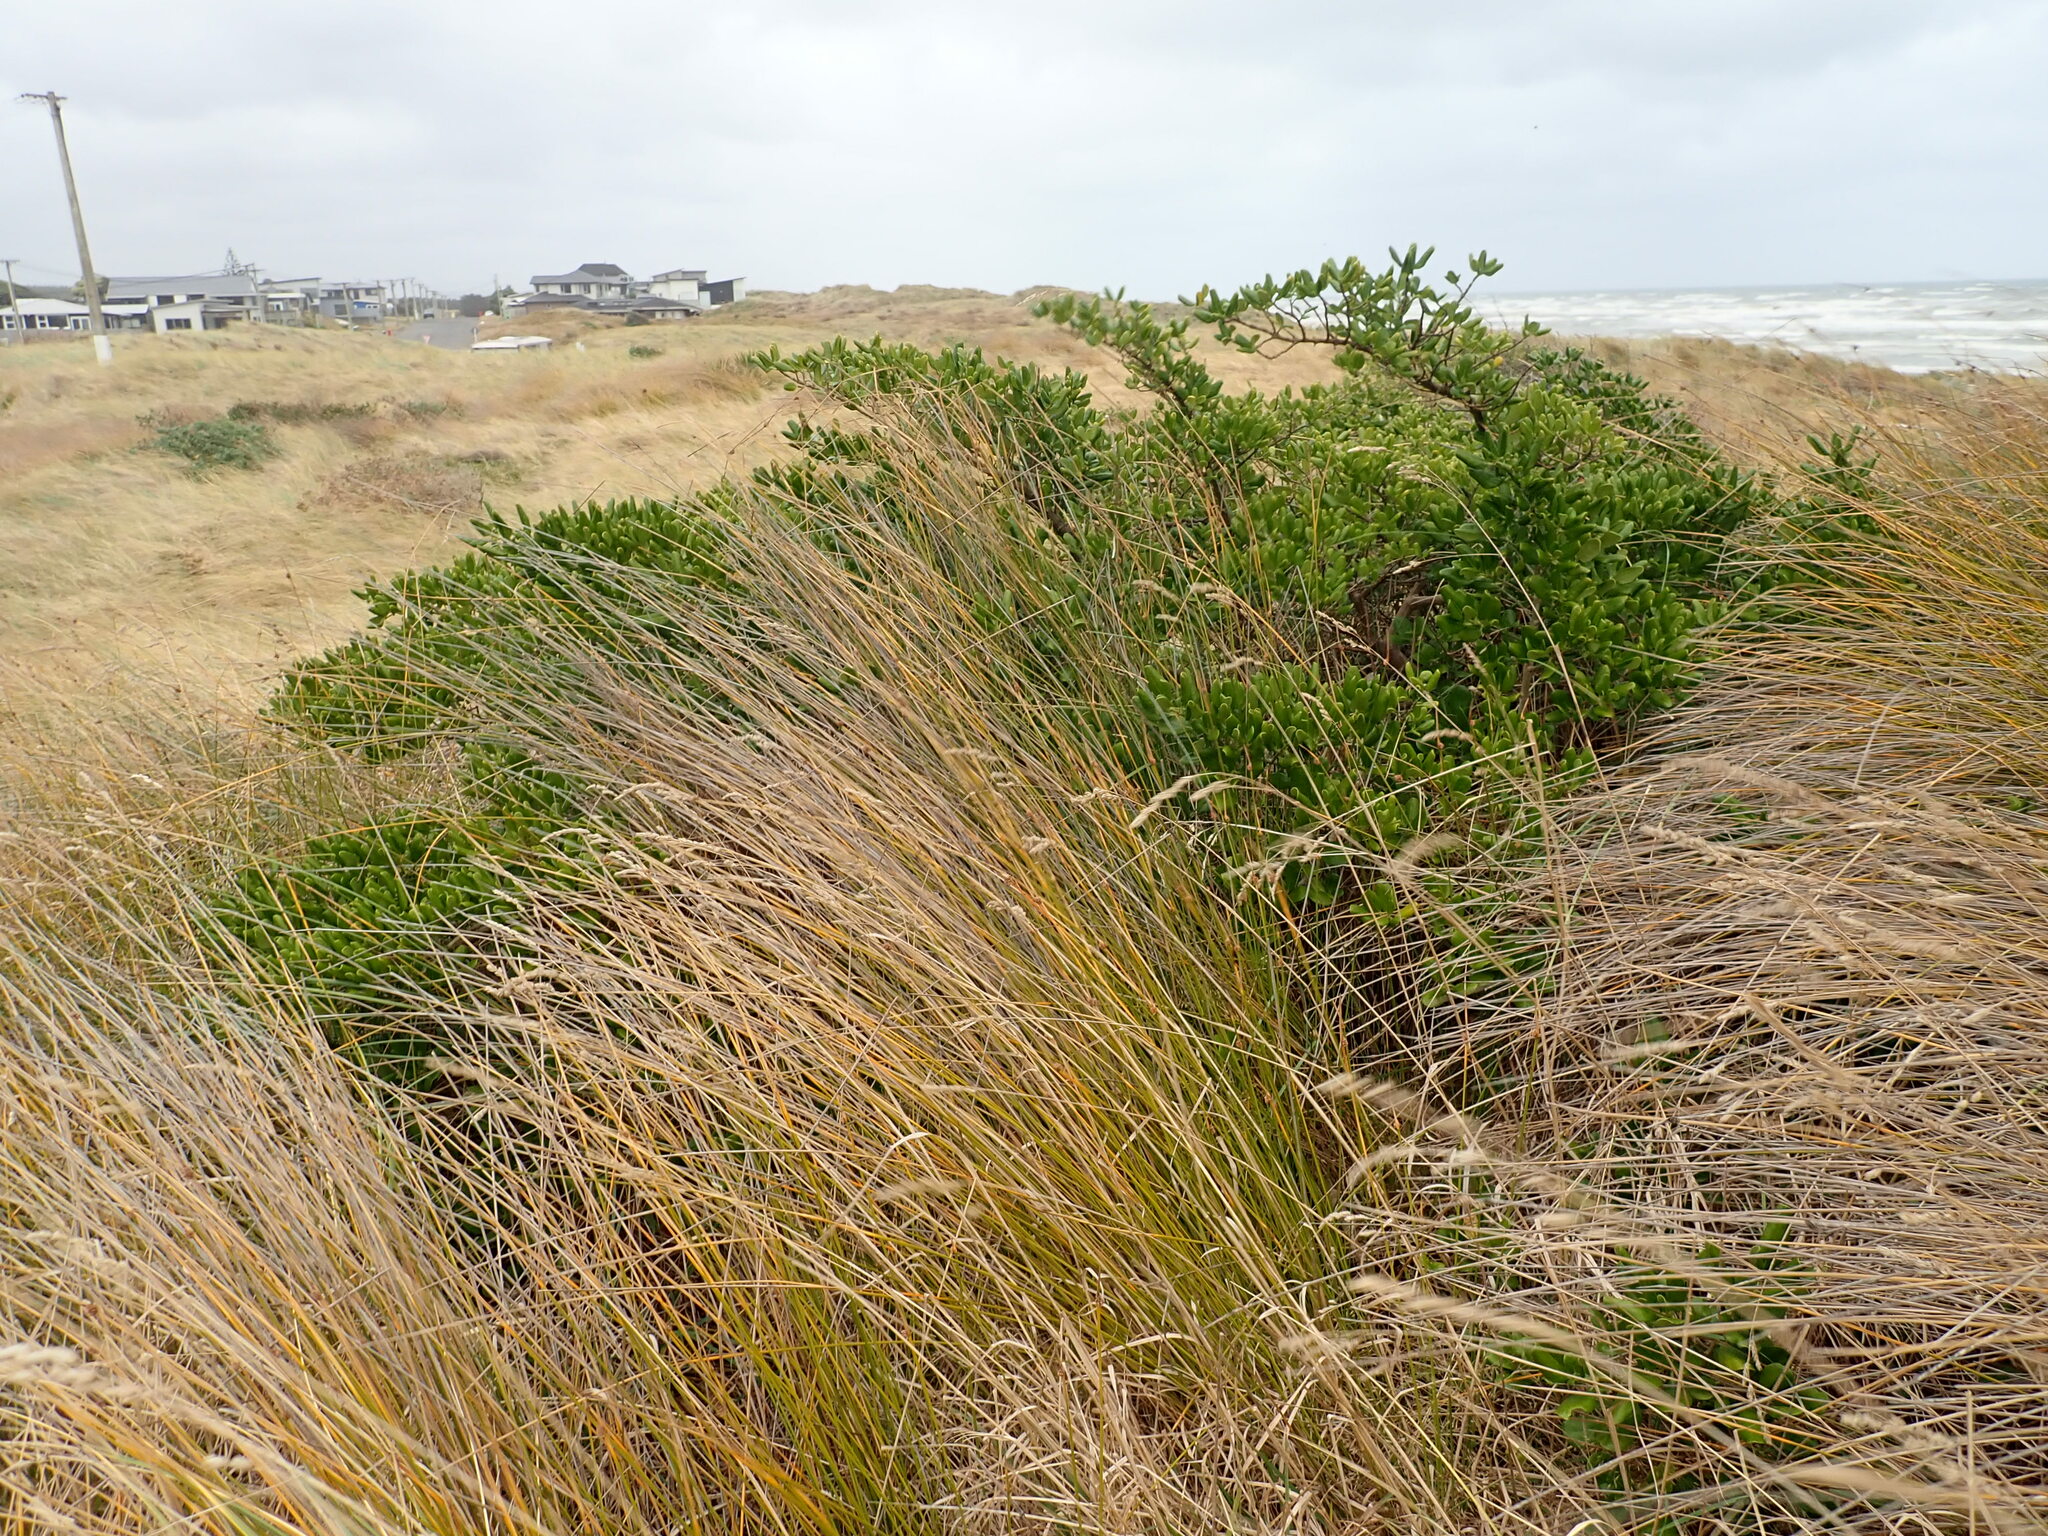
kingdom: Plantae
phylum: Tracheophyta
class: Magnoliopsida
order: Gentianales
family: Rubiaceae
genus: Coprosma
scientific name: Coprosma repens
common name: Tree bedstraw
